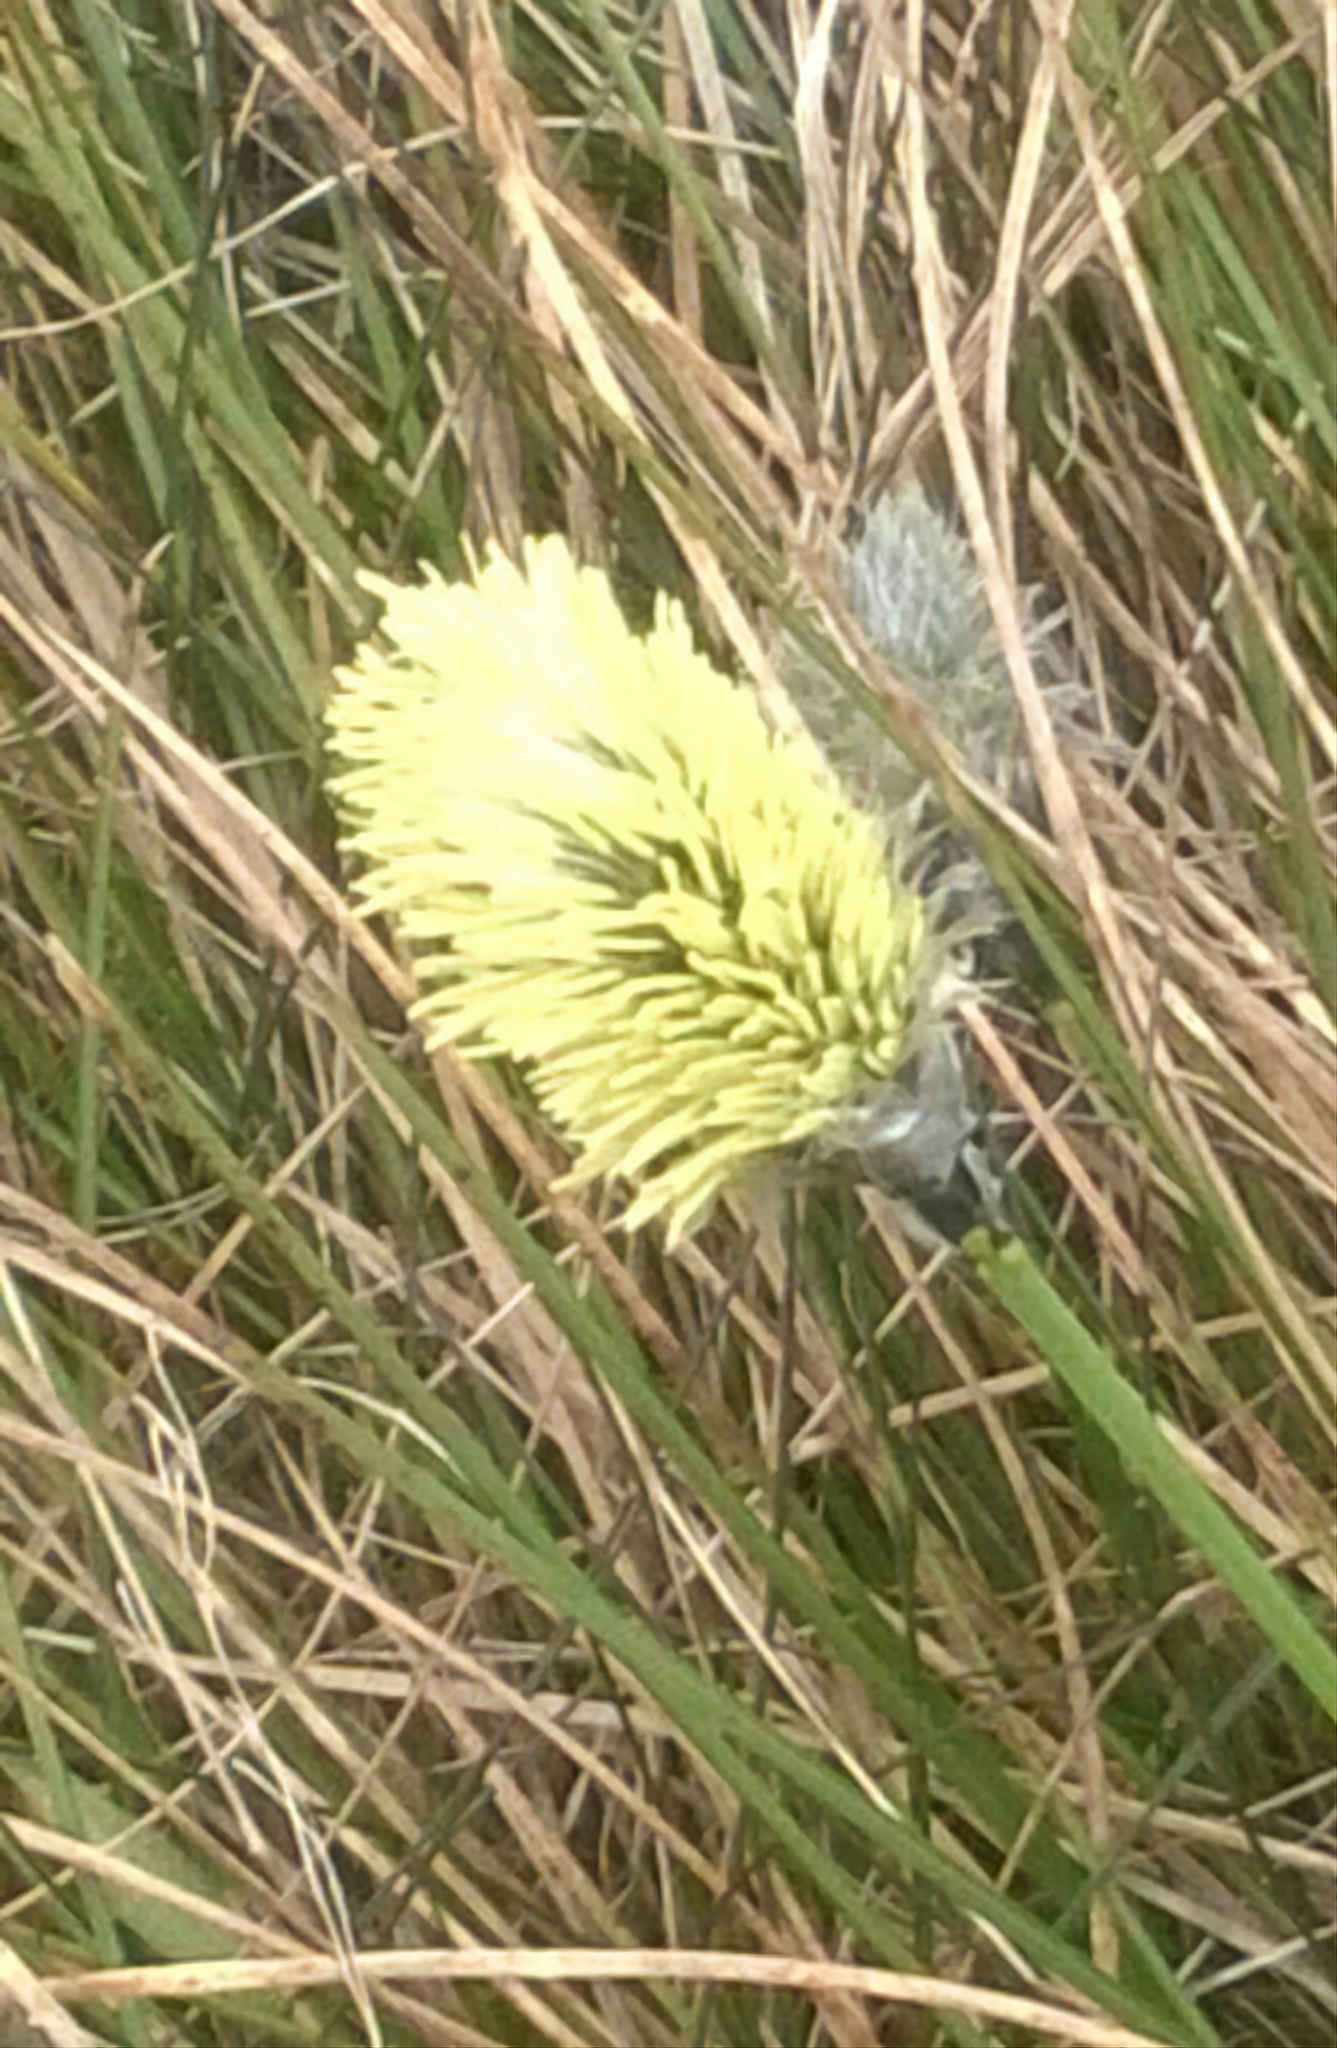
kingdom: Plantae
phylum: Tracheophyta
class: Liliopsida
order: Poales
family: Cyperaceae
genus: Eriophorum
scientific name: Eriophorum vaginatum
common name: Hare's-tail cottongrass
